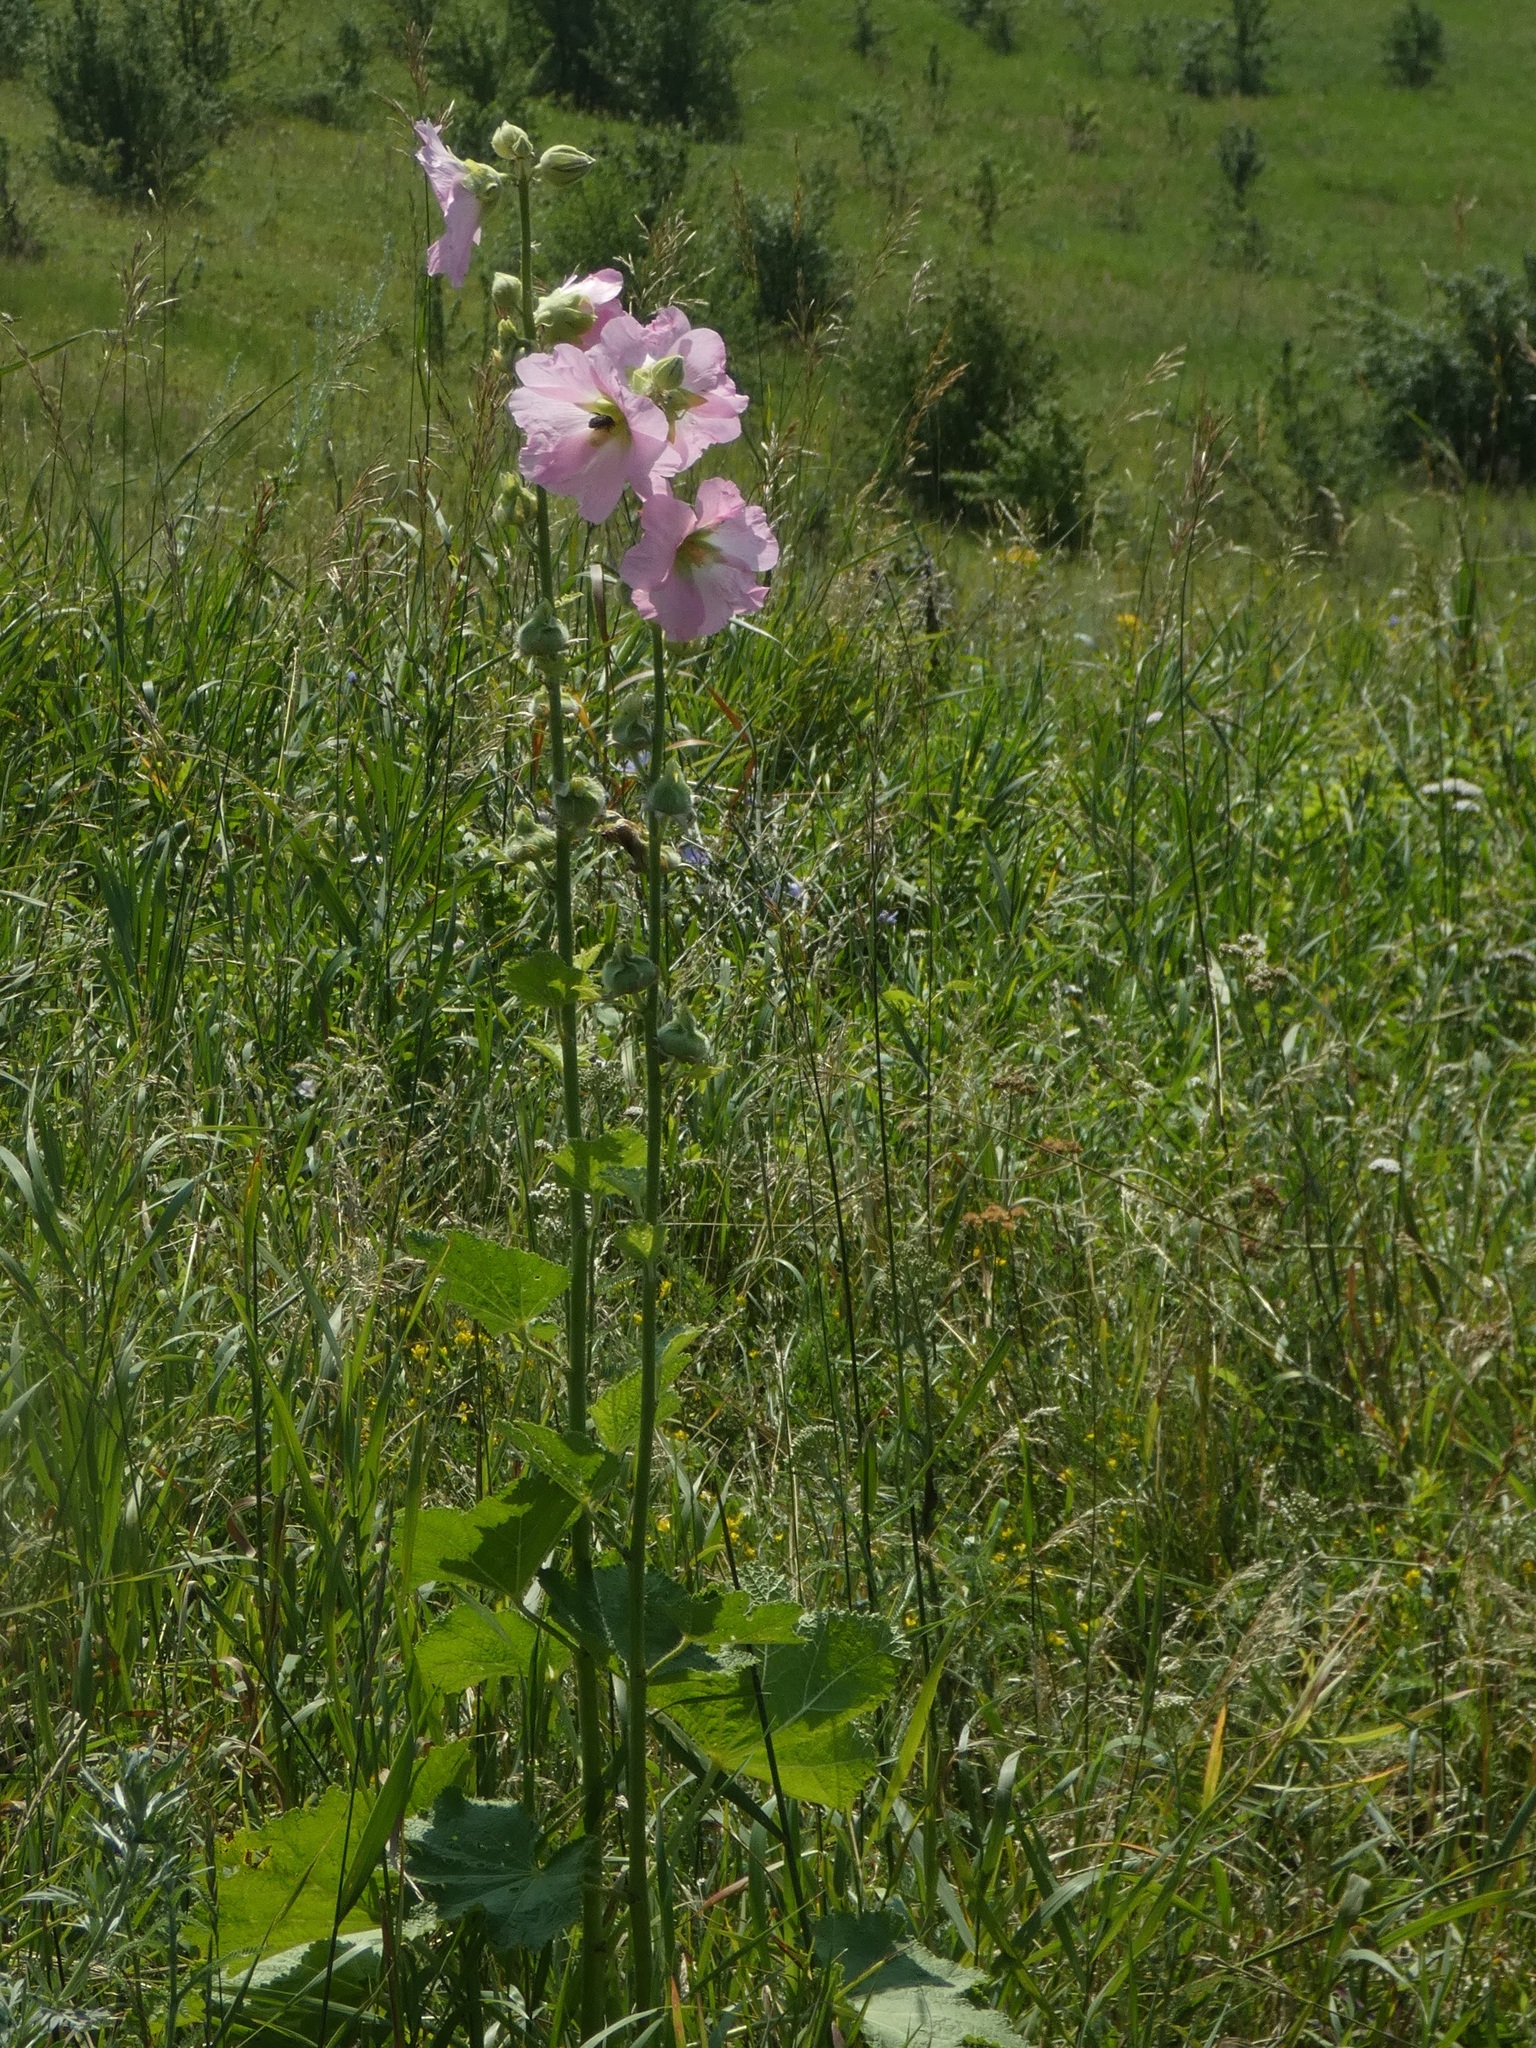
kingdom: Plantae
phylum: Tracheophyta
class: Magnoliopsida
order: Malvales
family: Malvaceae
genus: Malva
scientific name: Malva thuringiaca
